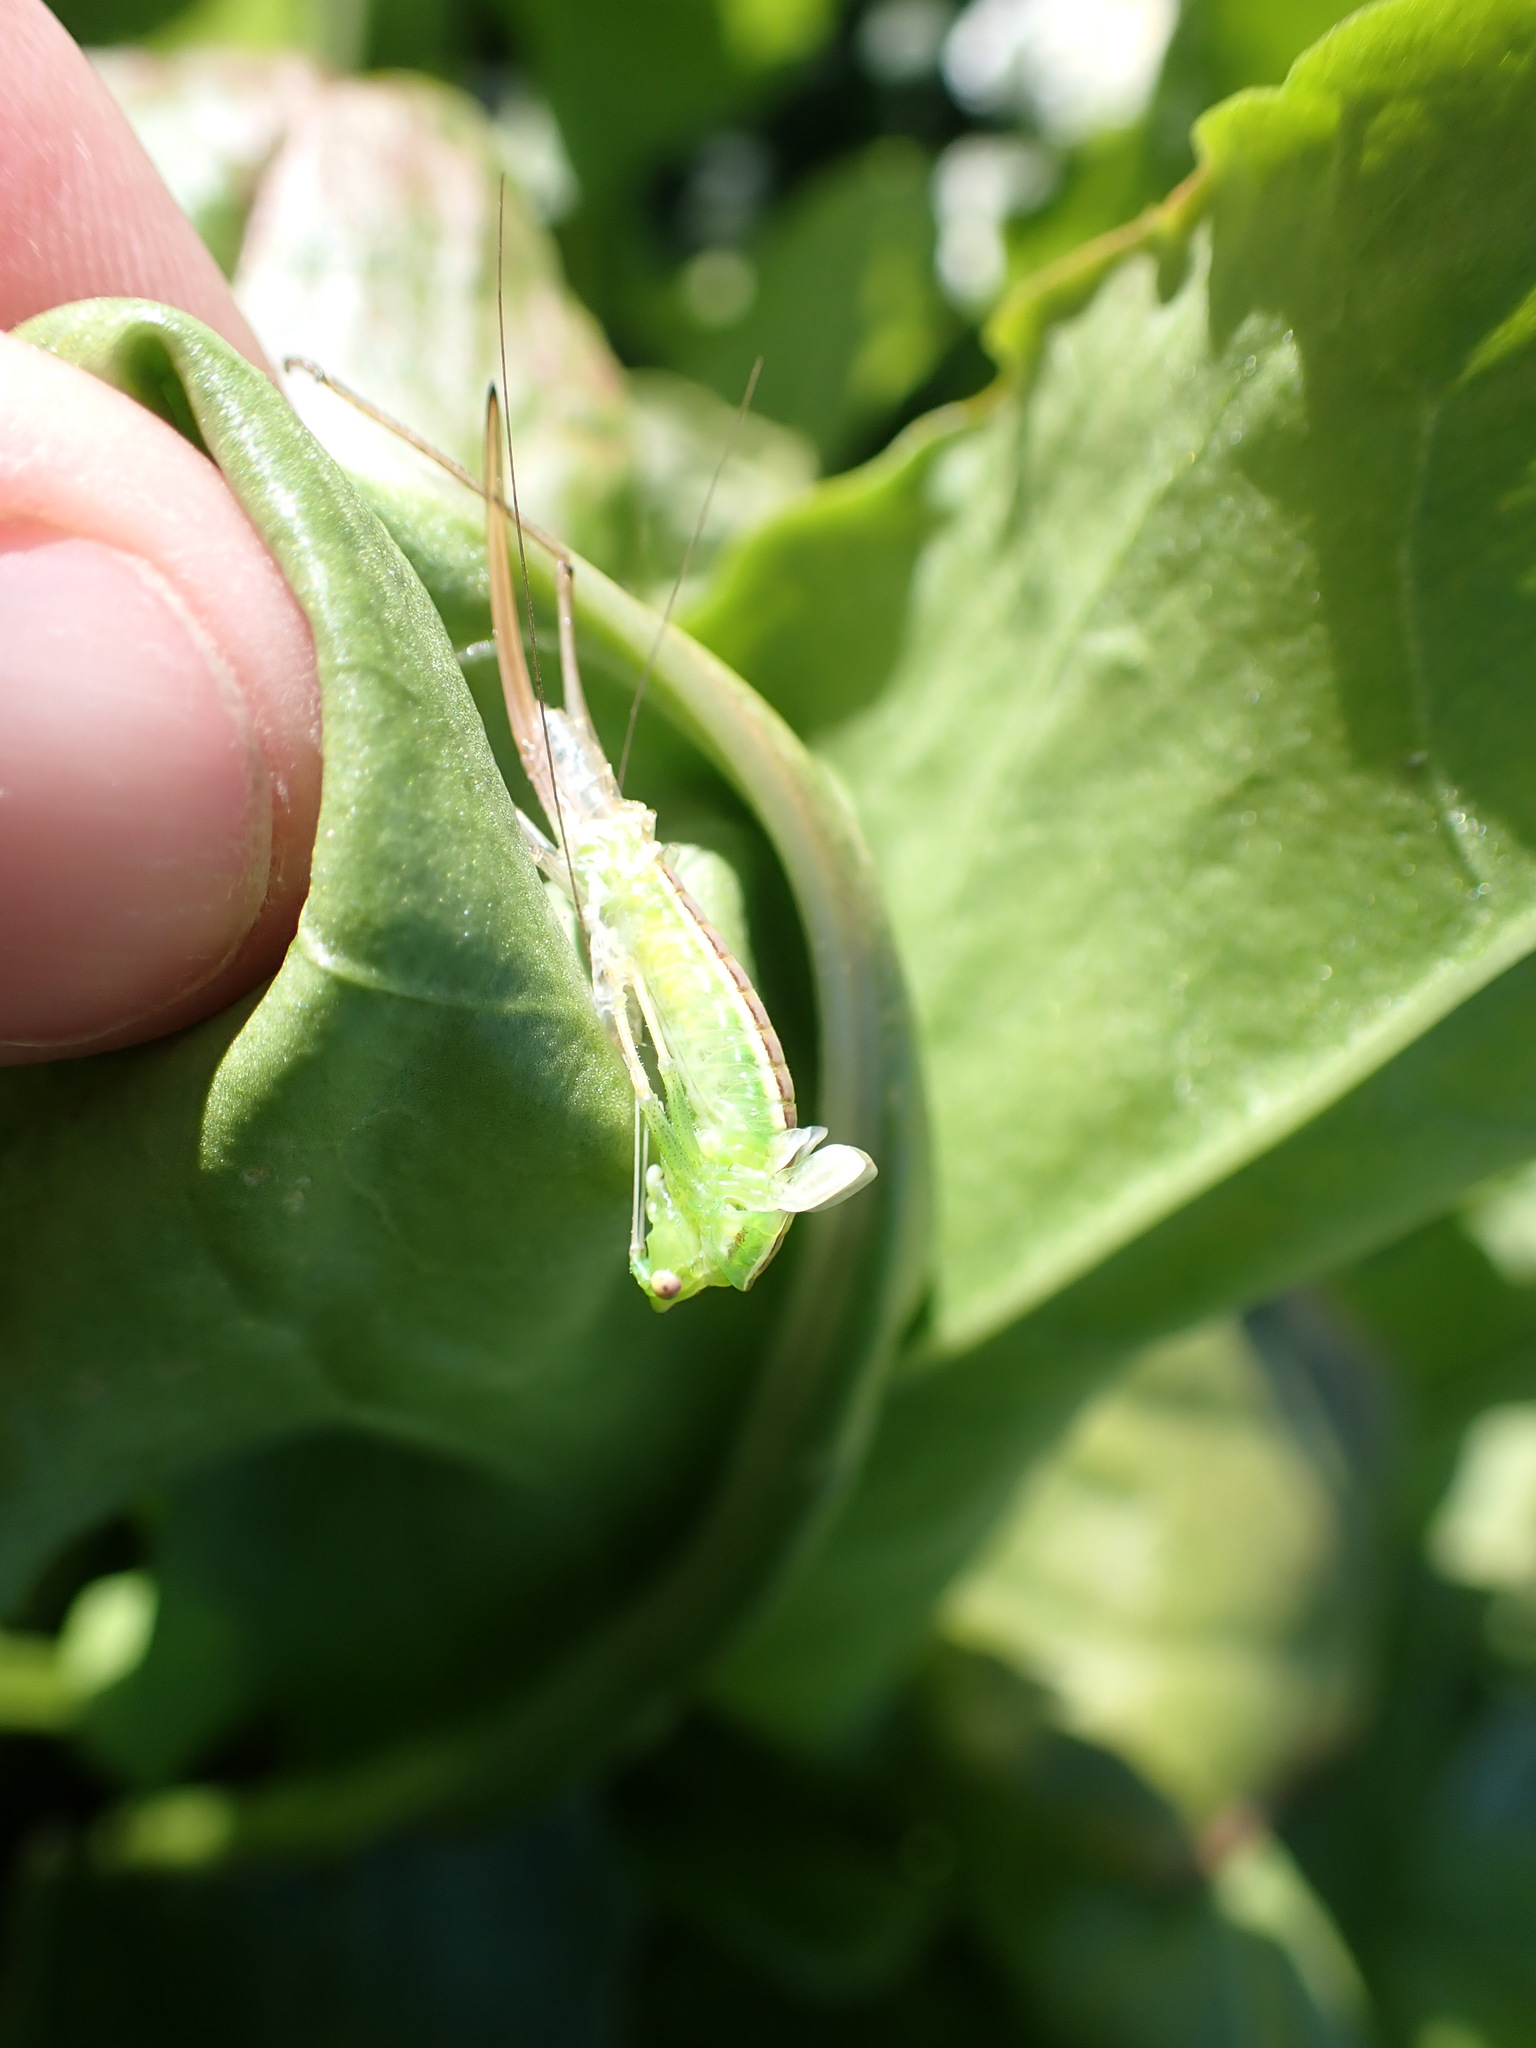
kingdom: Animalia
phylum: Arthropoda
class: Insecta
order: Orthoptera
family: Tettigoniidae
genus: Conocephalus
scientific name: Conocephalus bilineatus
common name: Small meadow katydid
